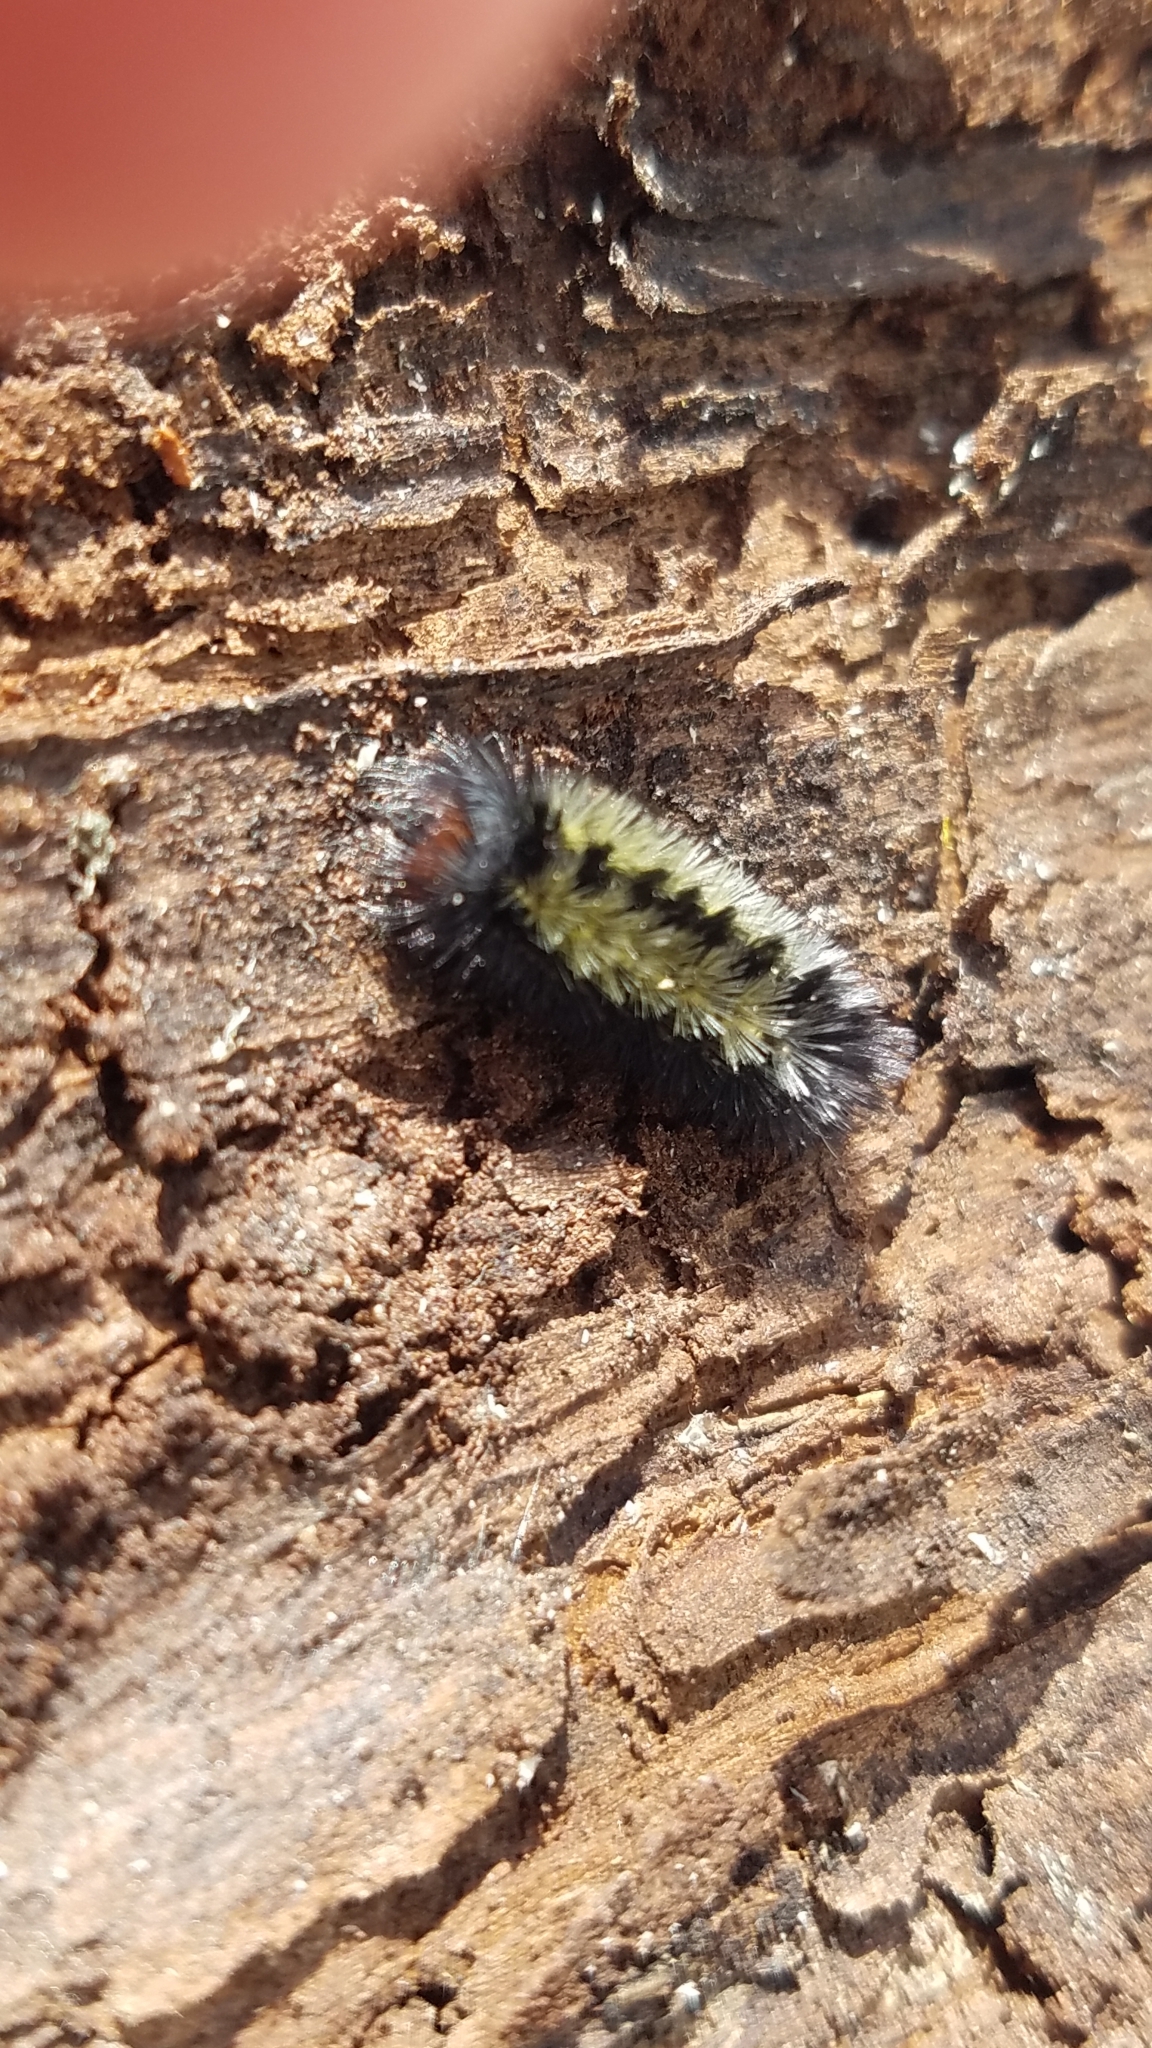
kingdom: Animalia
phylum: Arthropoda
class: Insecta
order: Lepidoptera
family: Erebidae
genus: Ctenucha
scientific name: Ctenucha virginica
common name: Virginia ctenucha moth
